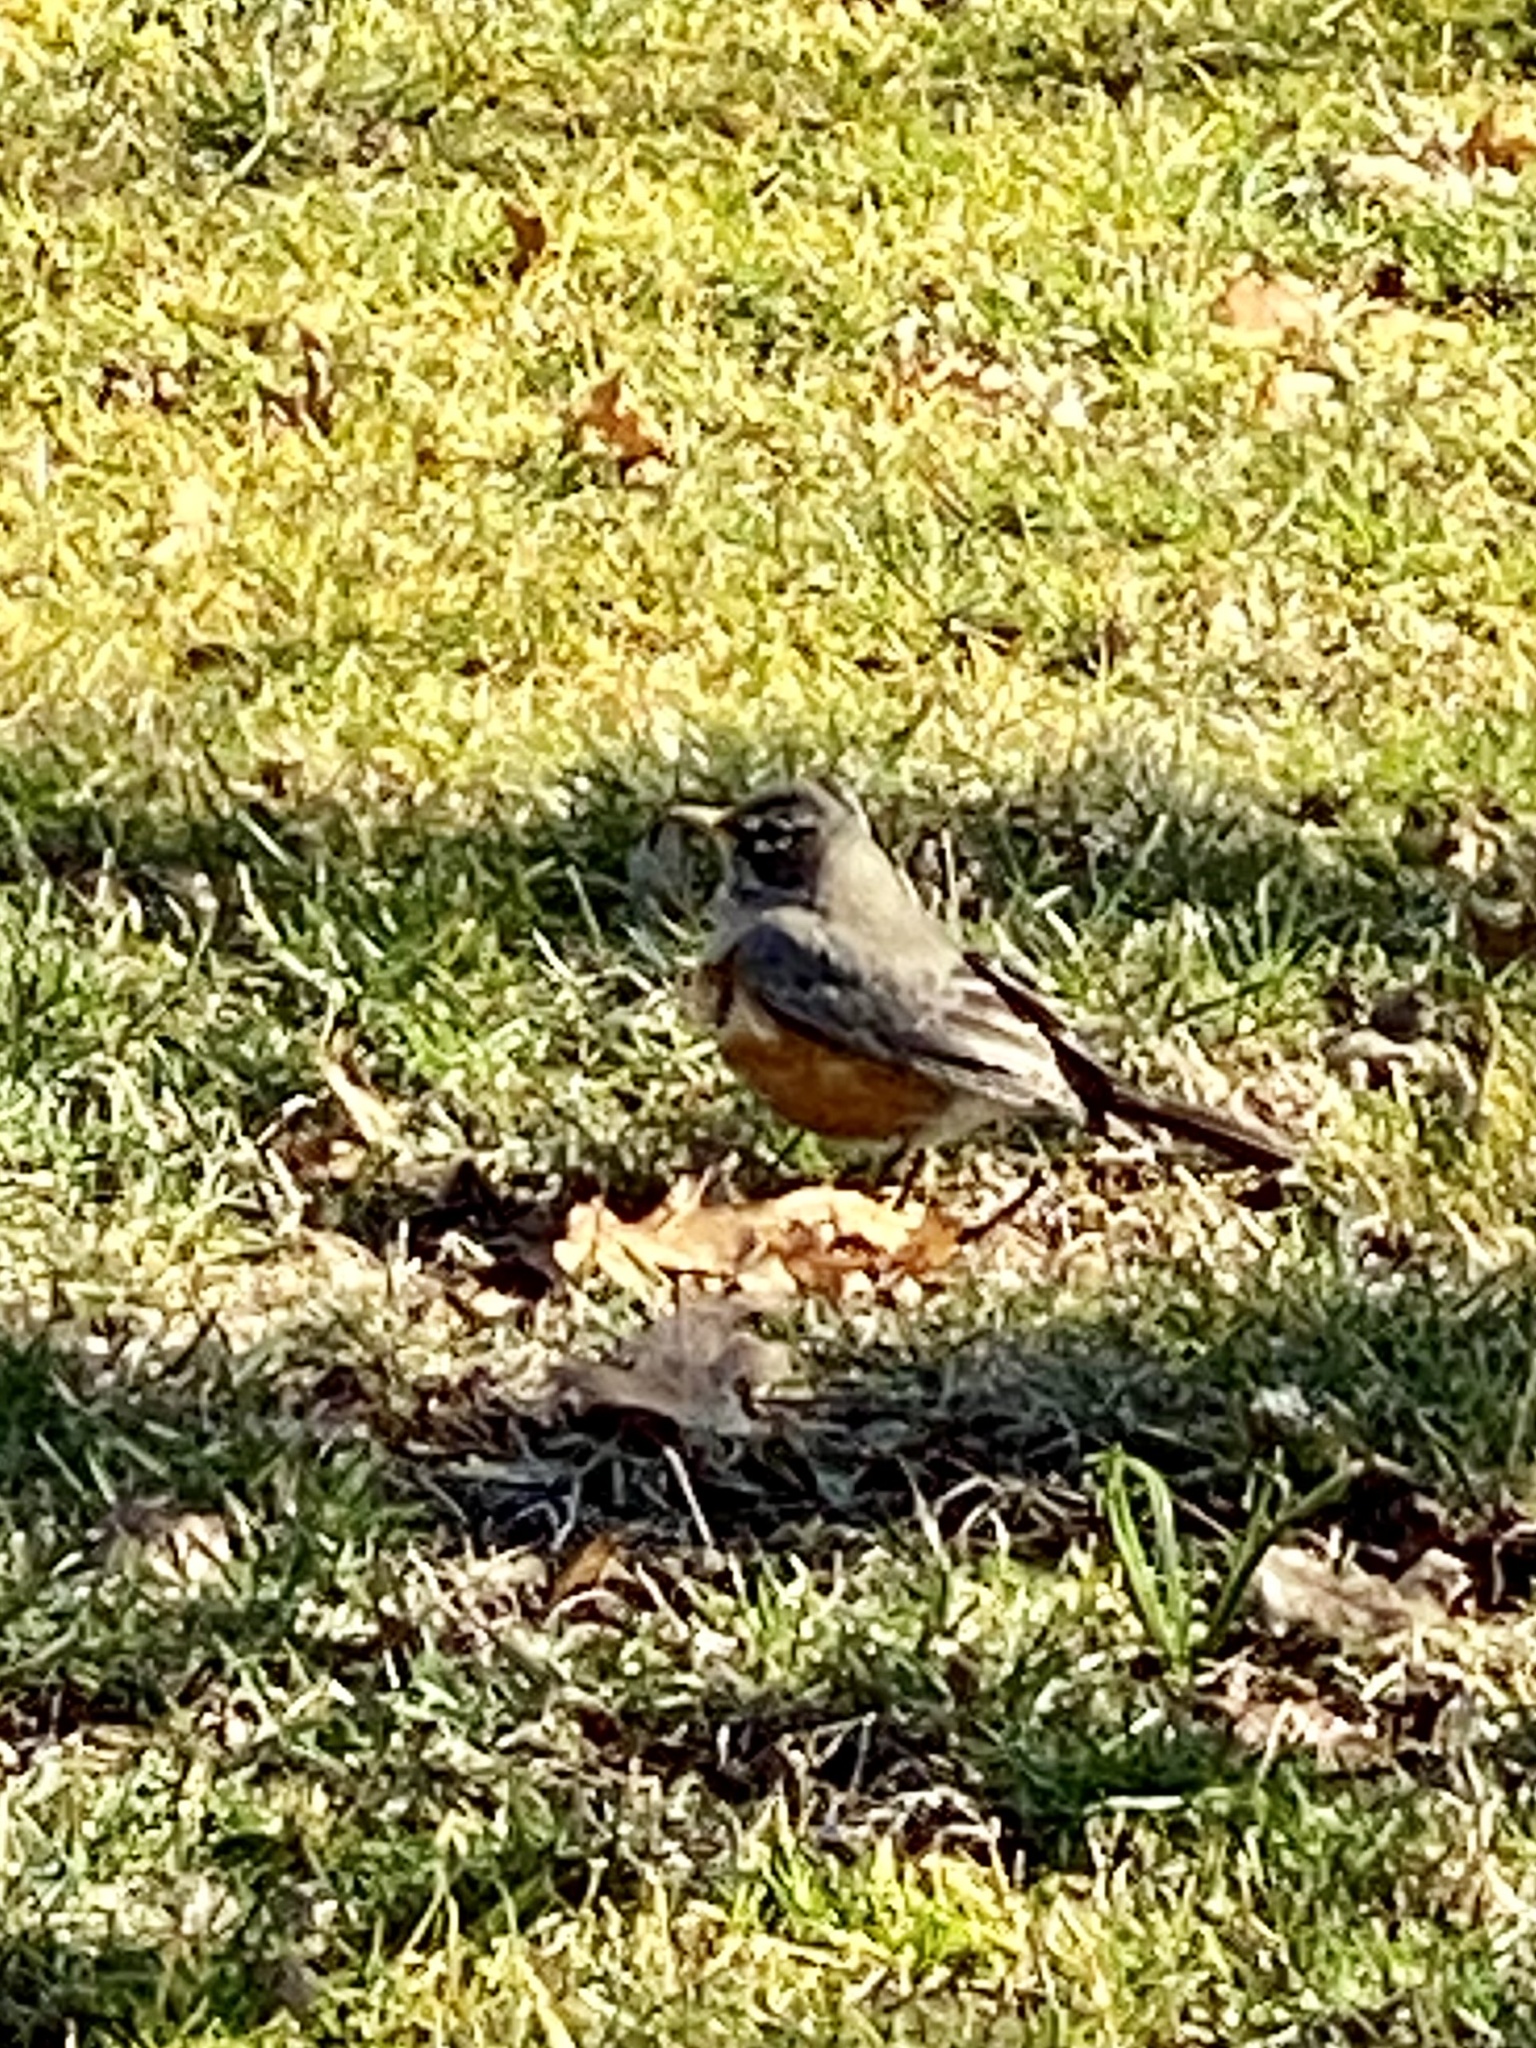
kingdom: Animalia
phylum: Chordata
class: Aves
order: Passeriformes
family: Turdidae
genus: Turdus
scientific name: Turdus migratorius
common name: American robin
